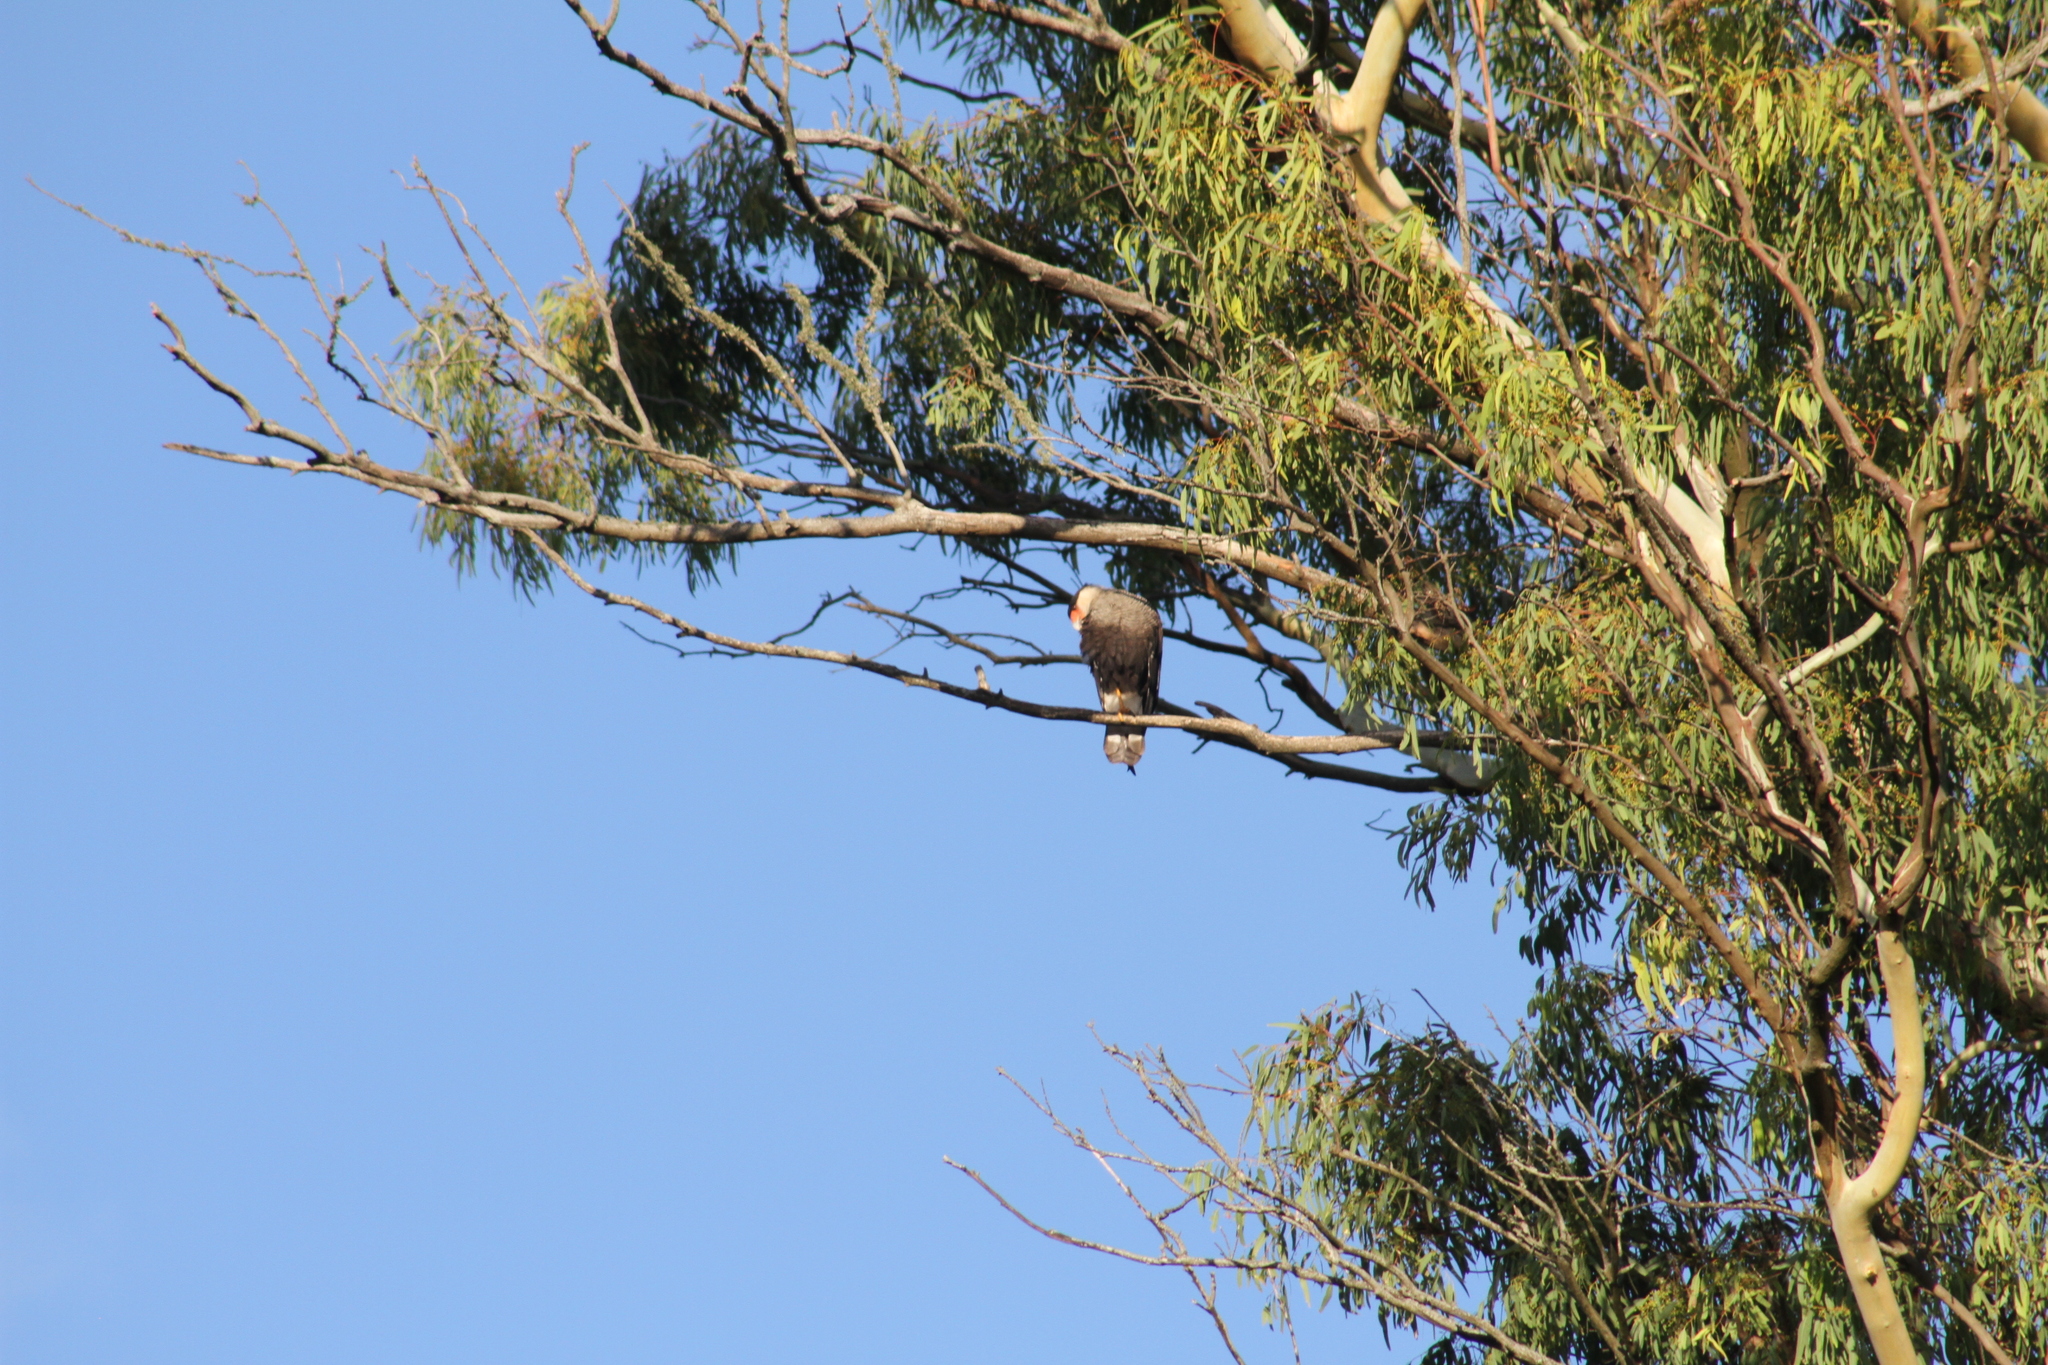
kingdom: Animalia
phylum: Chordata
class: Aves
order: Falconiformes
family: Falconidae
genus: Caracara
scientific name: Caracara plancus
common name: Southern caracara
